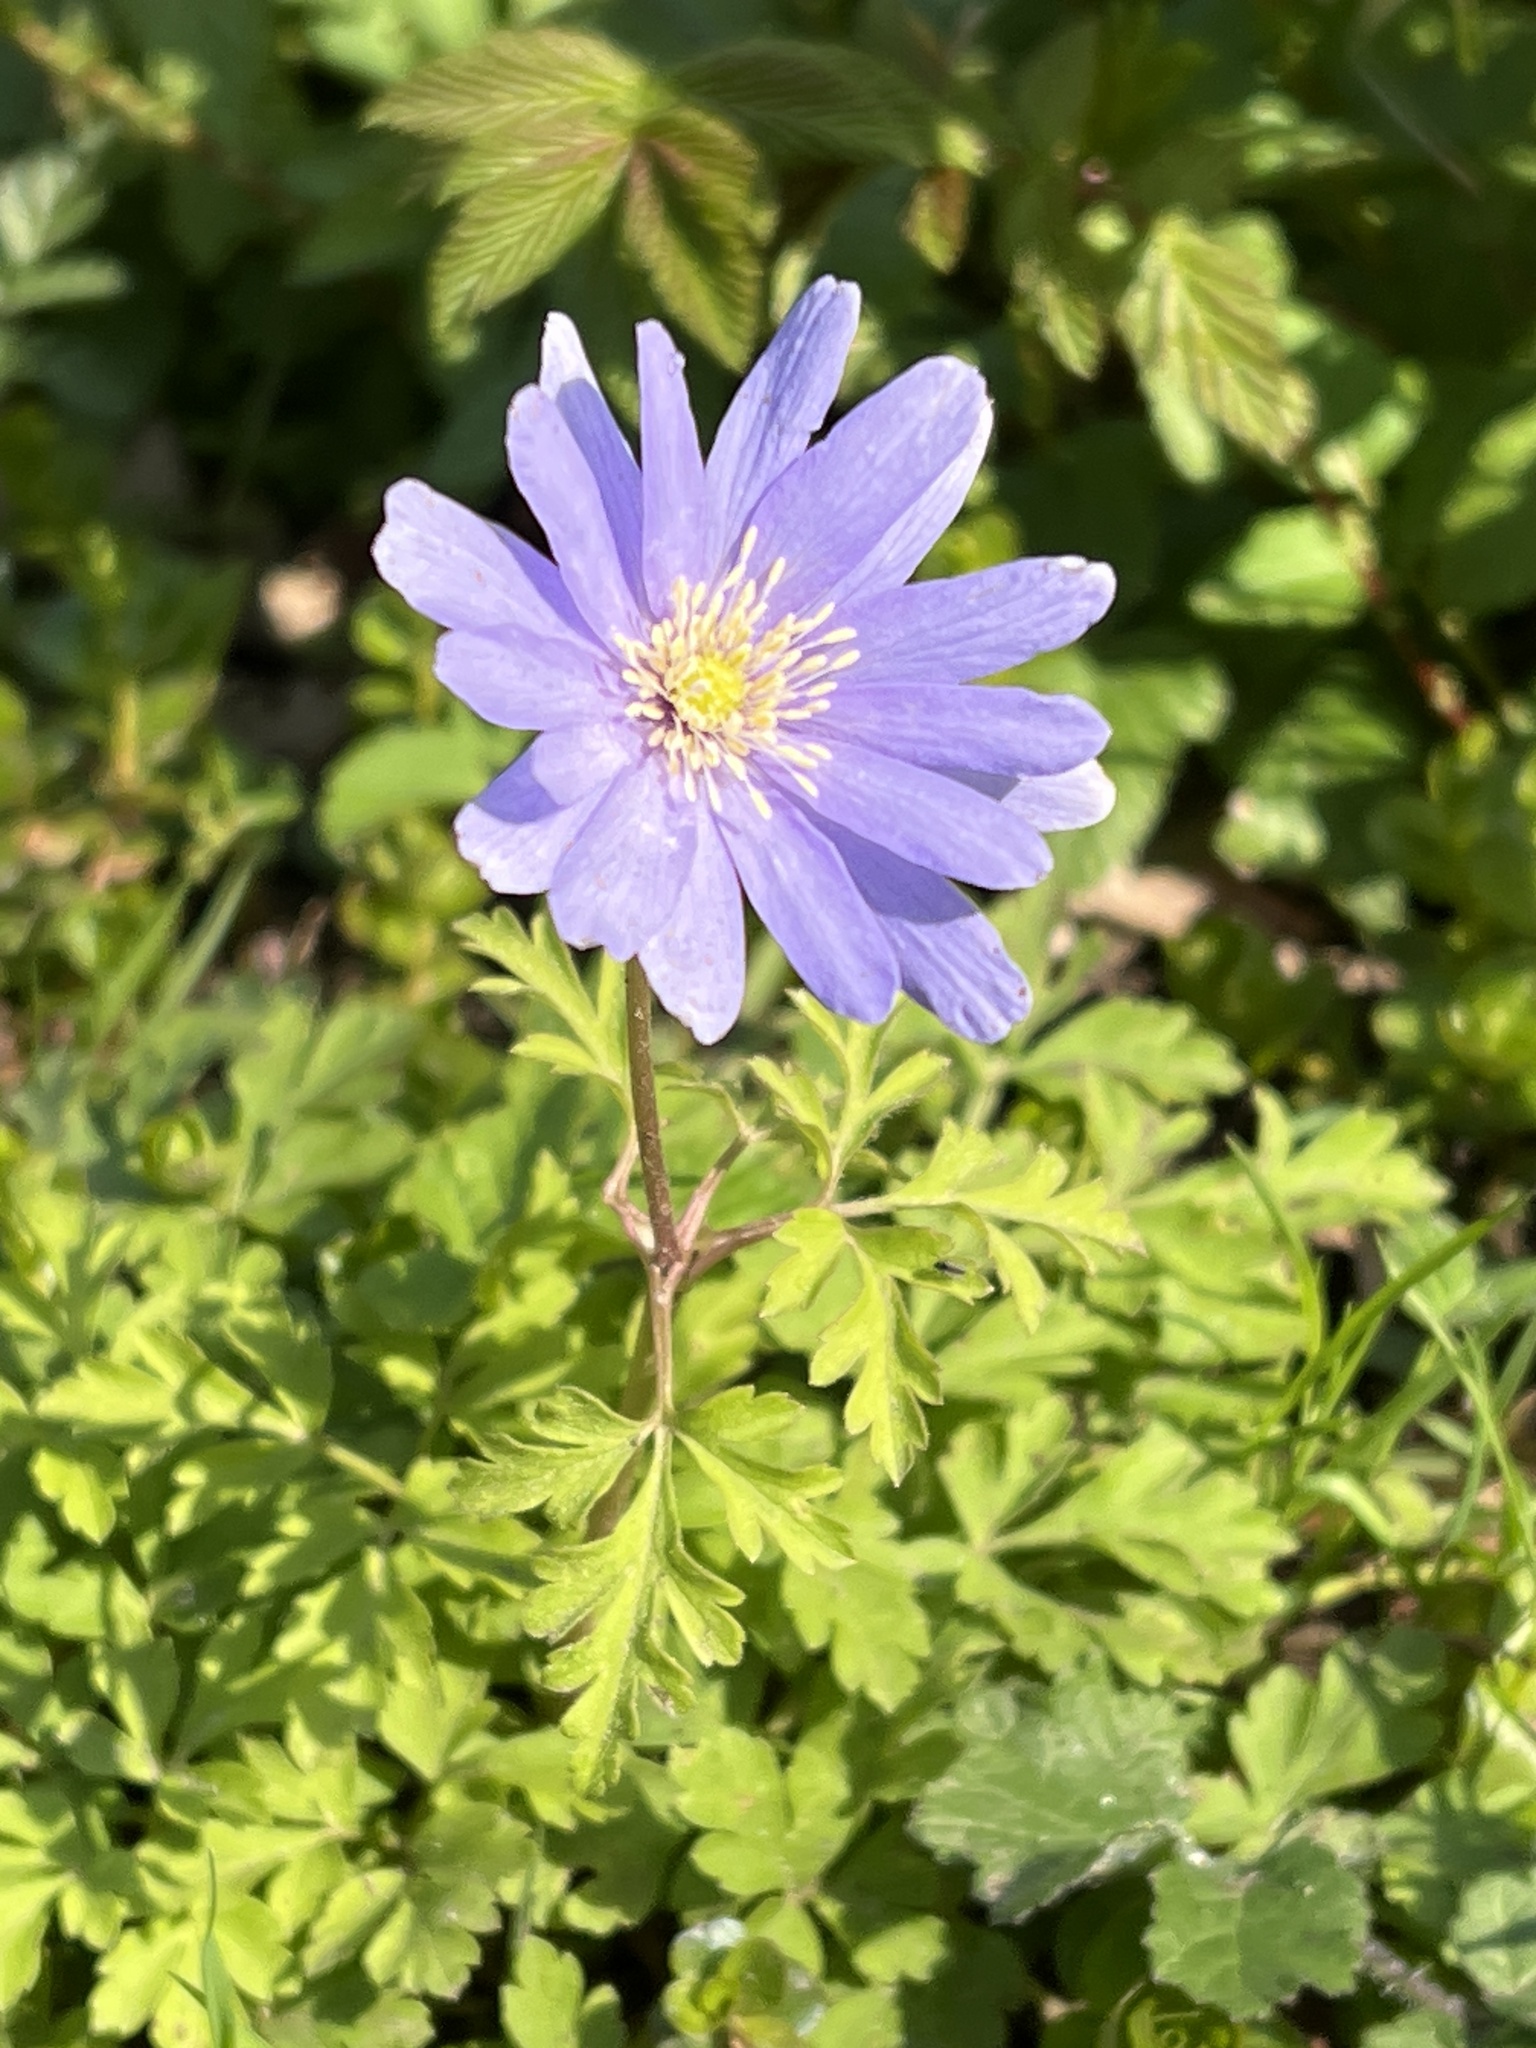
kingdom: Plantae
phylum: Tracheophyta
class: Magnoliopsida
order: Ranunculales
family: Ranunculaceae
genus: Anemone
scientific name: Anemone apennina
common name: Blue anemone
